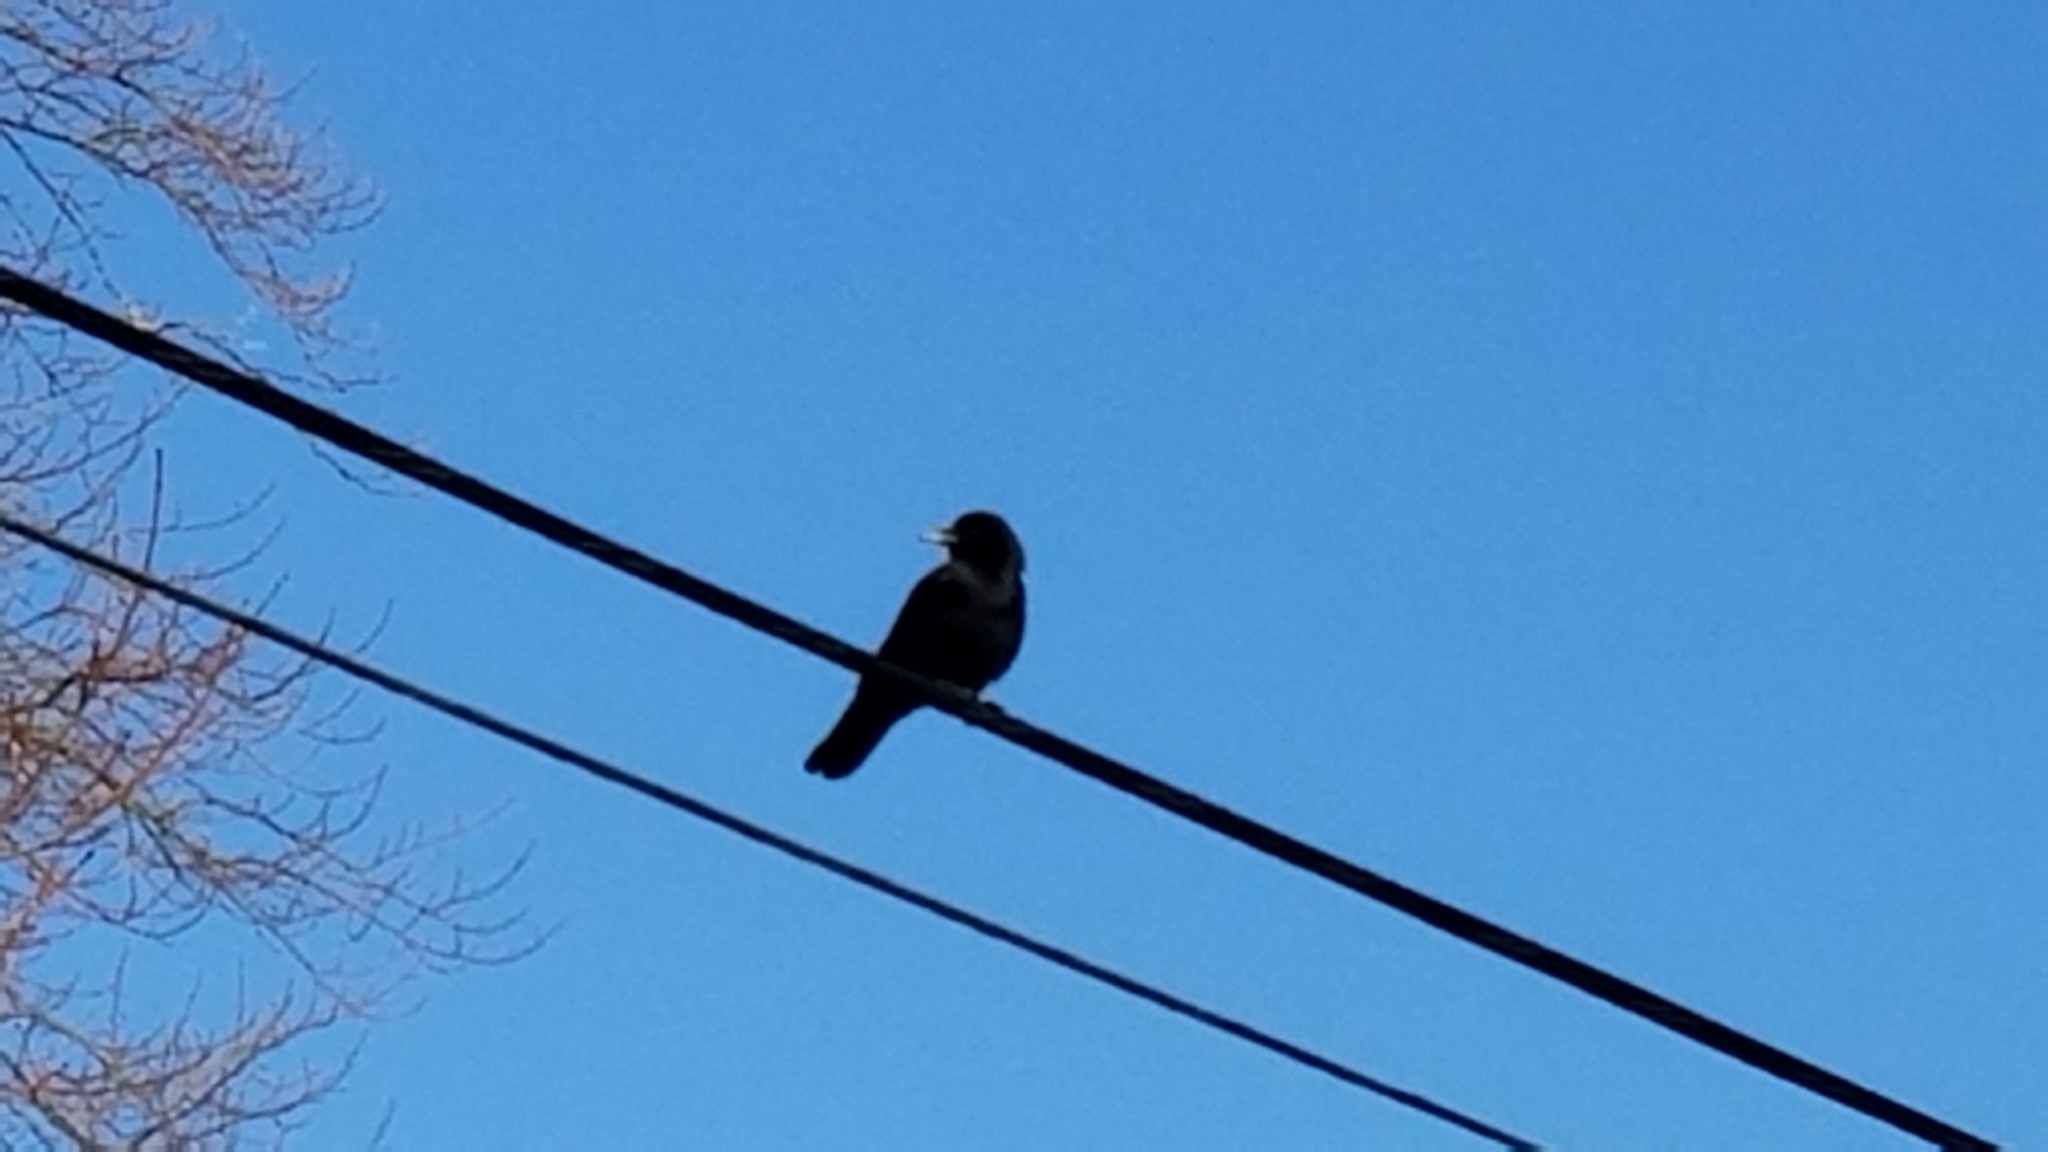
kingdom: Animalia
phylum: Chordata
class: Aves
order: Passeriformes
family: Corvidae
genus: Corvus
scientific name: Corvus brachyrhynchos
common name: American crow
